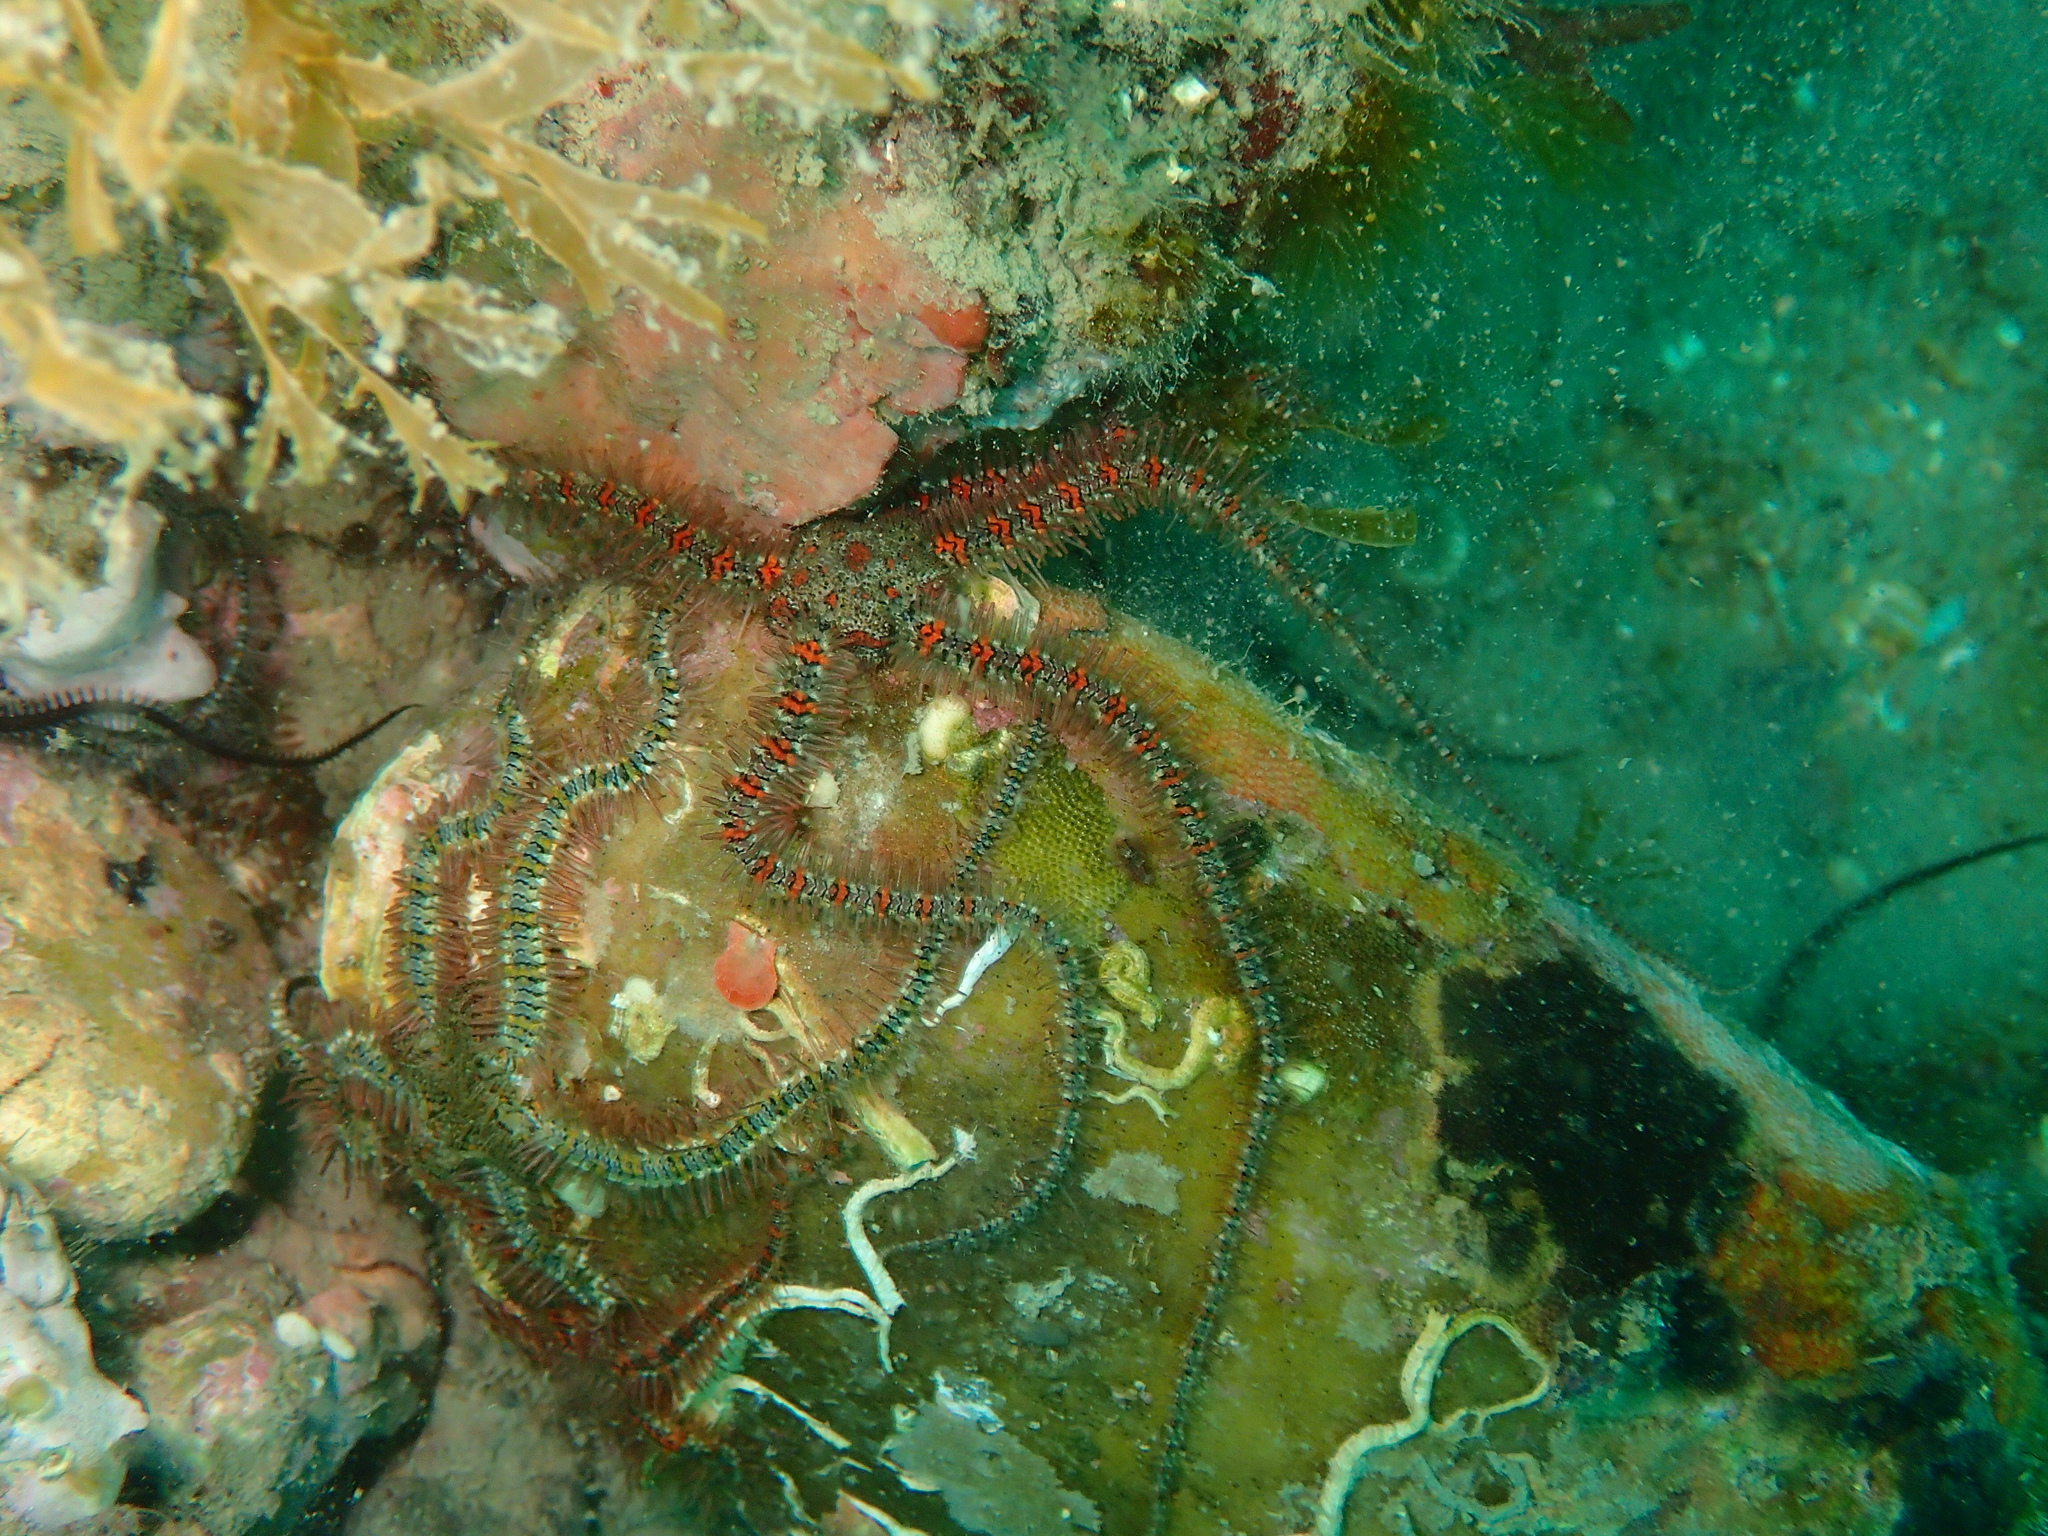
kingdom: Animalia
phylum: Echinodermata
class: Ophiuroidea
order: Amphilepidida
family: Ophiotrichidae
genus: Ophiothrix
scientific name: Ophiothrix fragilis
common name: Common brittlestar
